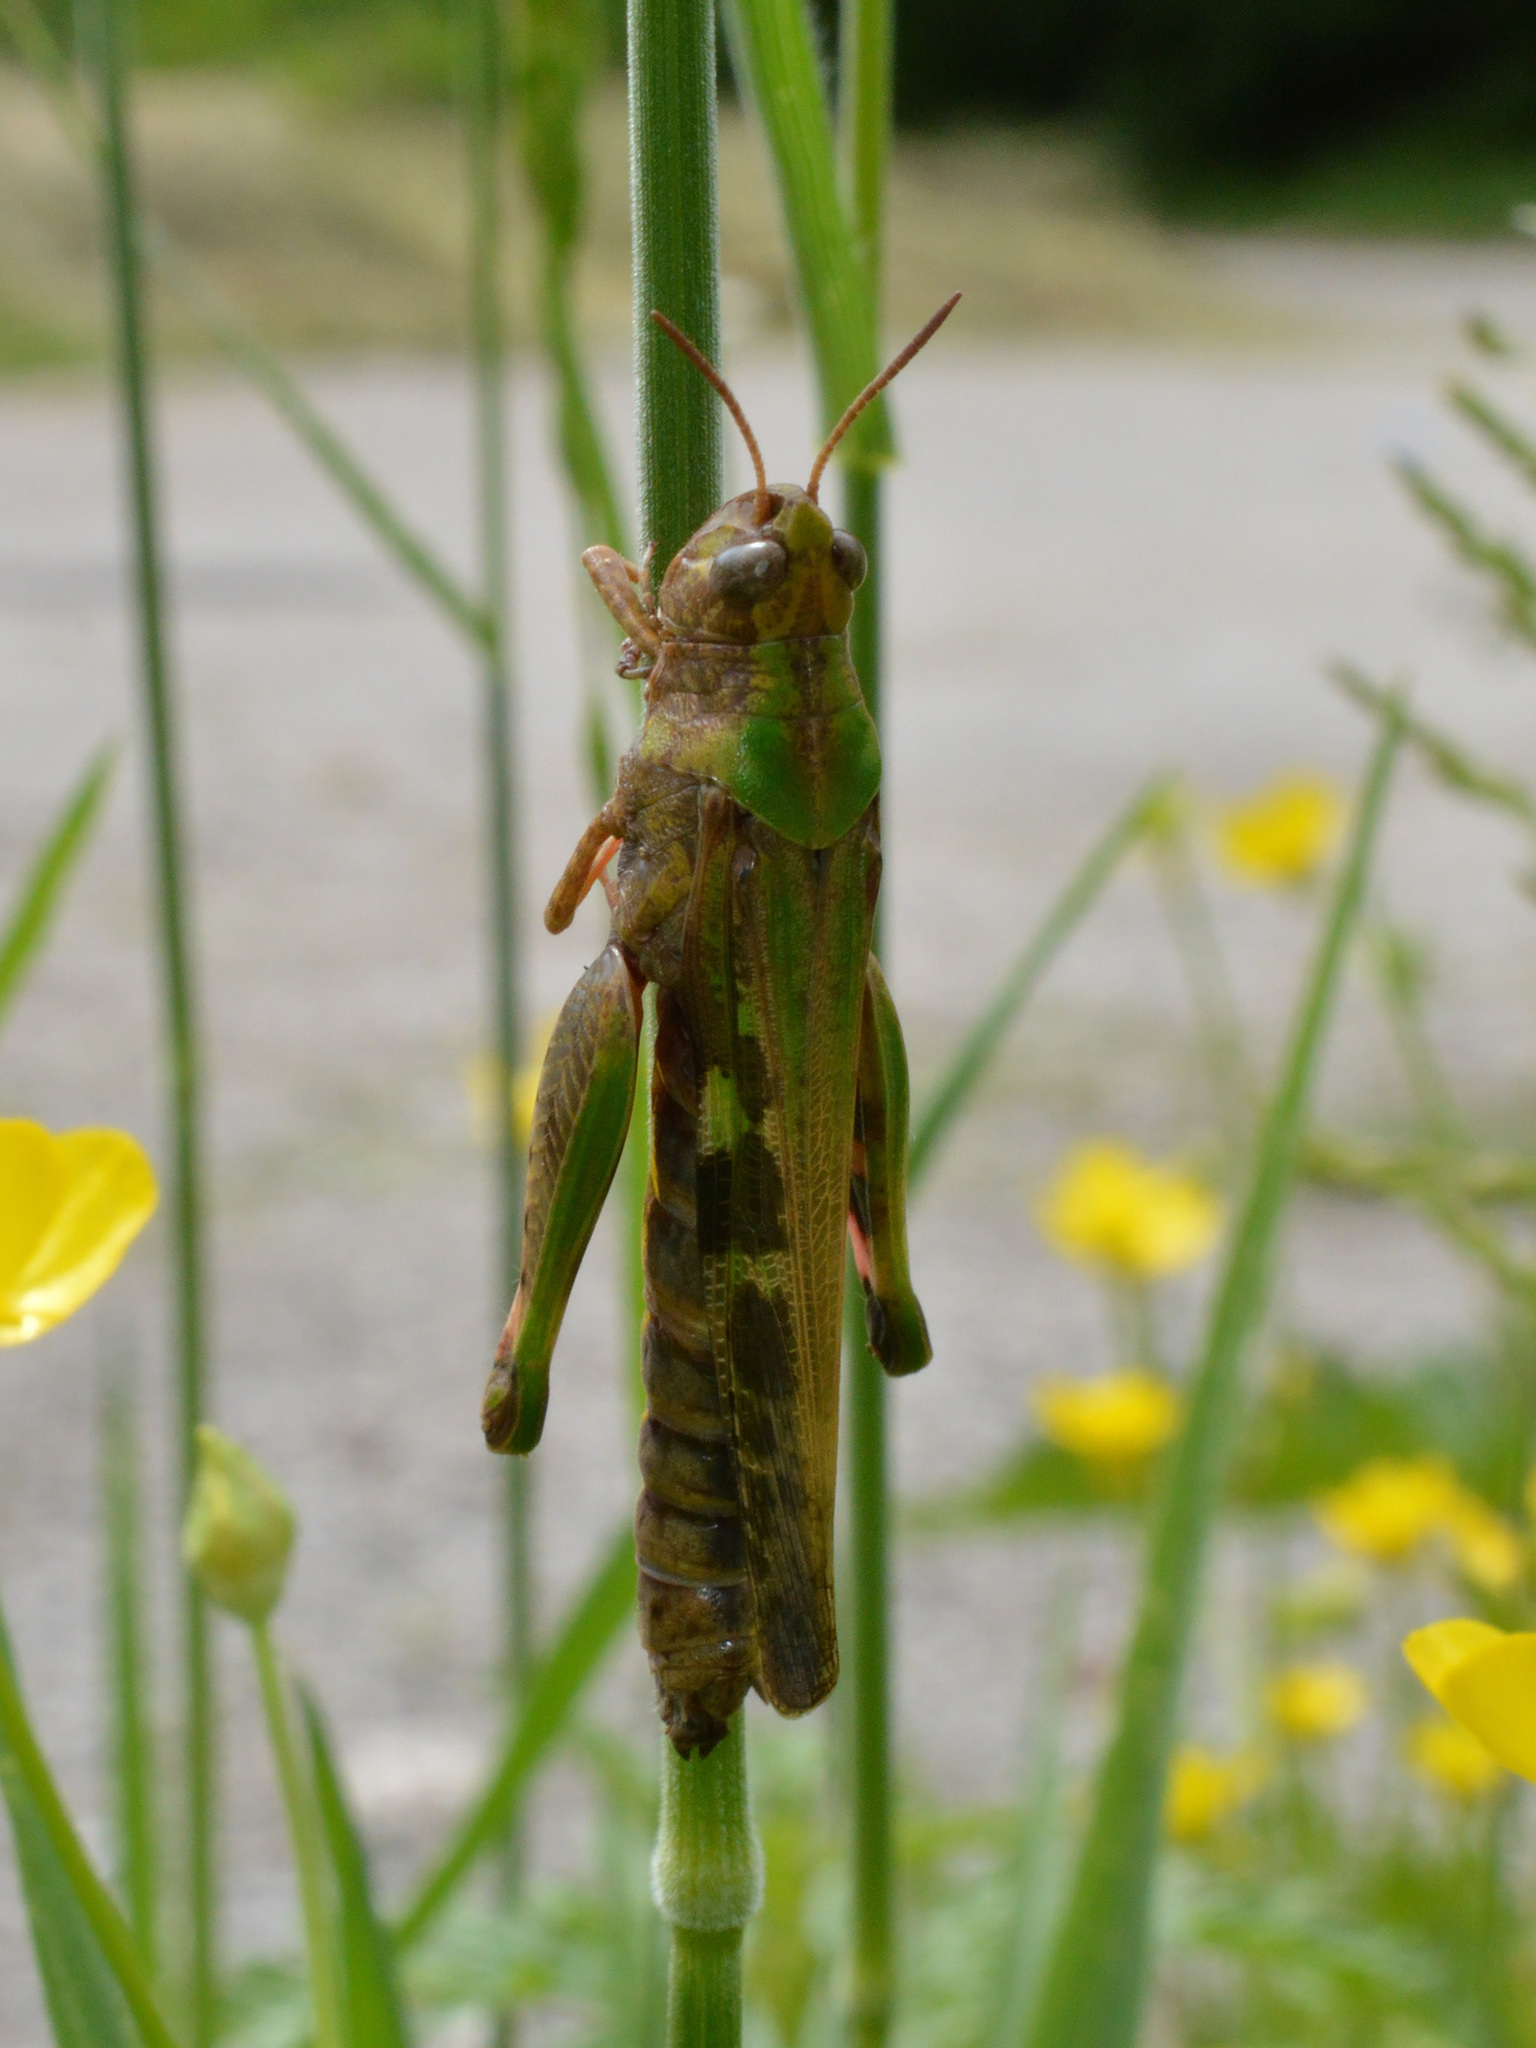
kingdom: Animalia
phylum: Arthropoda
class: Insecta
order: Orthoptera
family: Acrididae
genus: Aiolopus
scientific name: Aiolopus strepens
